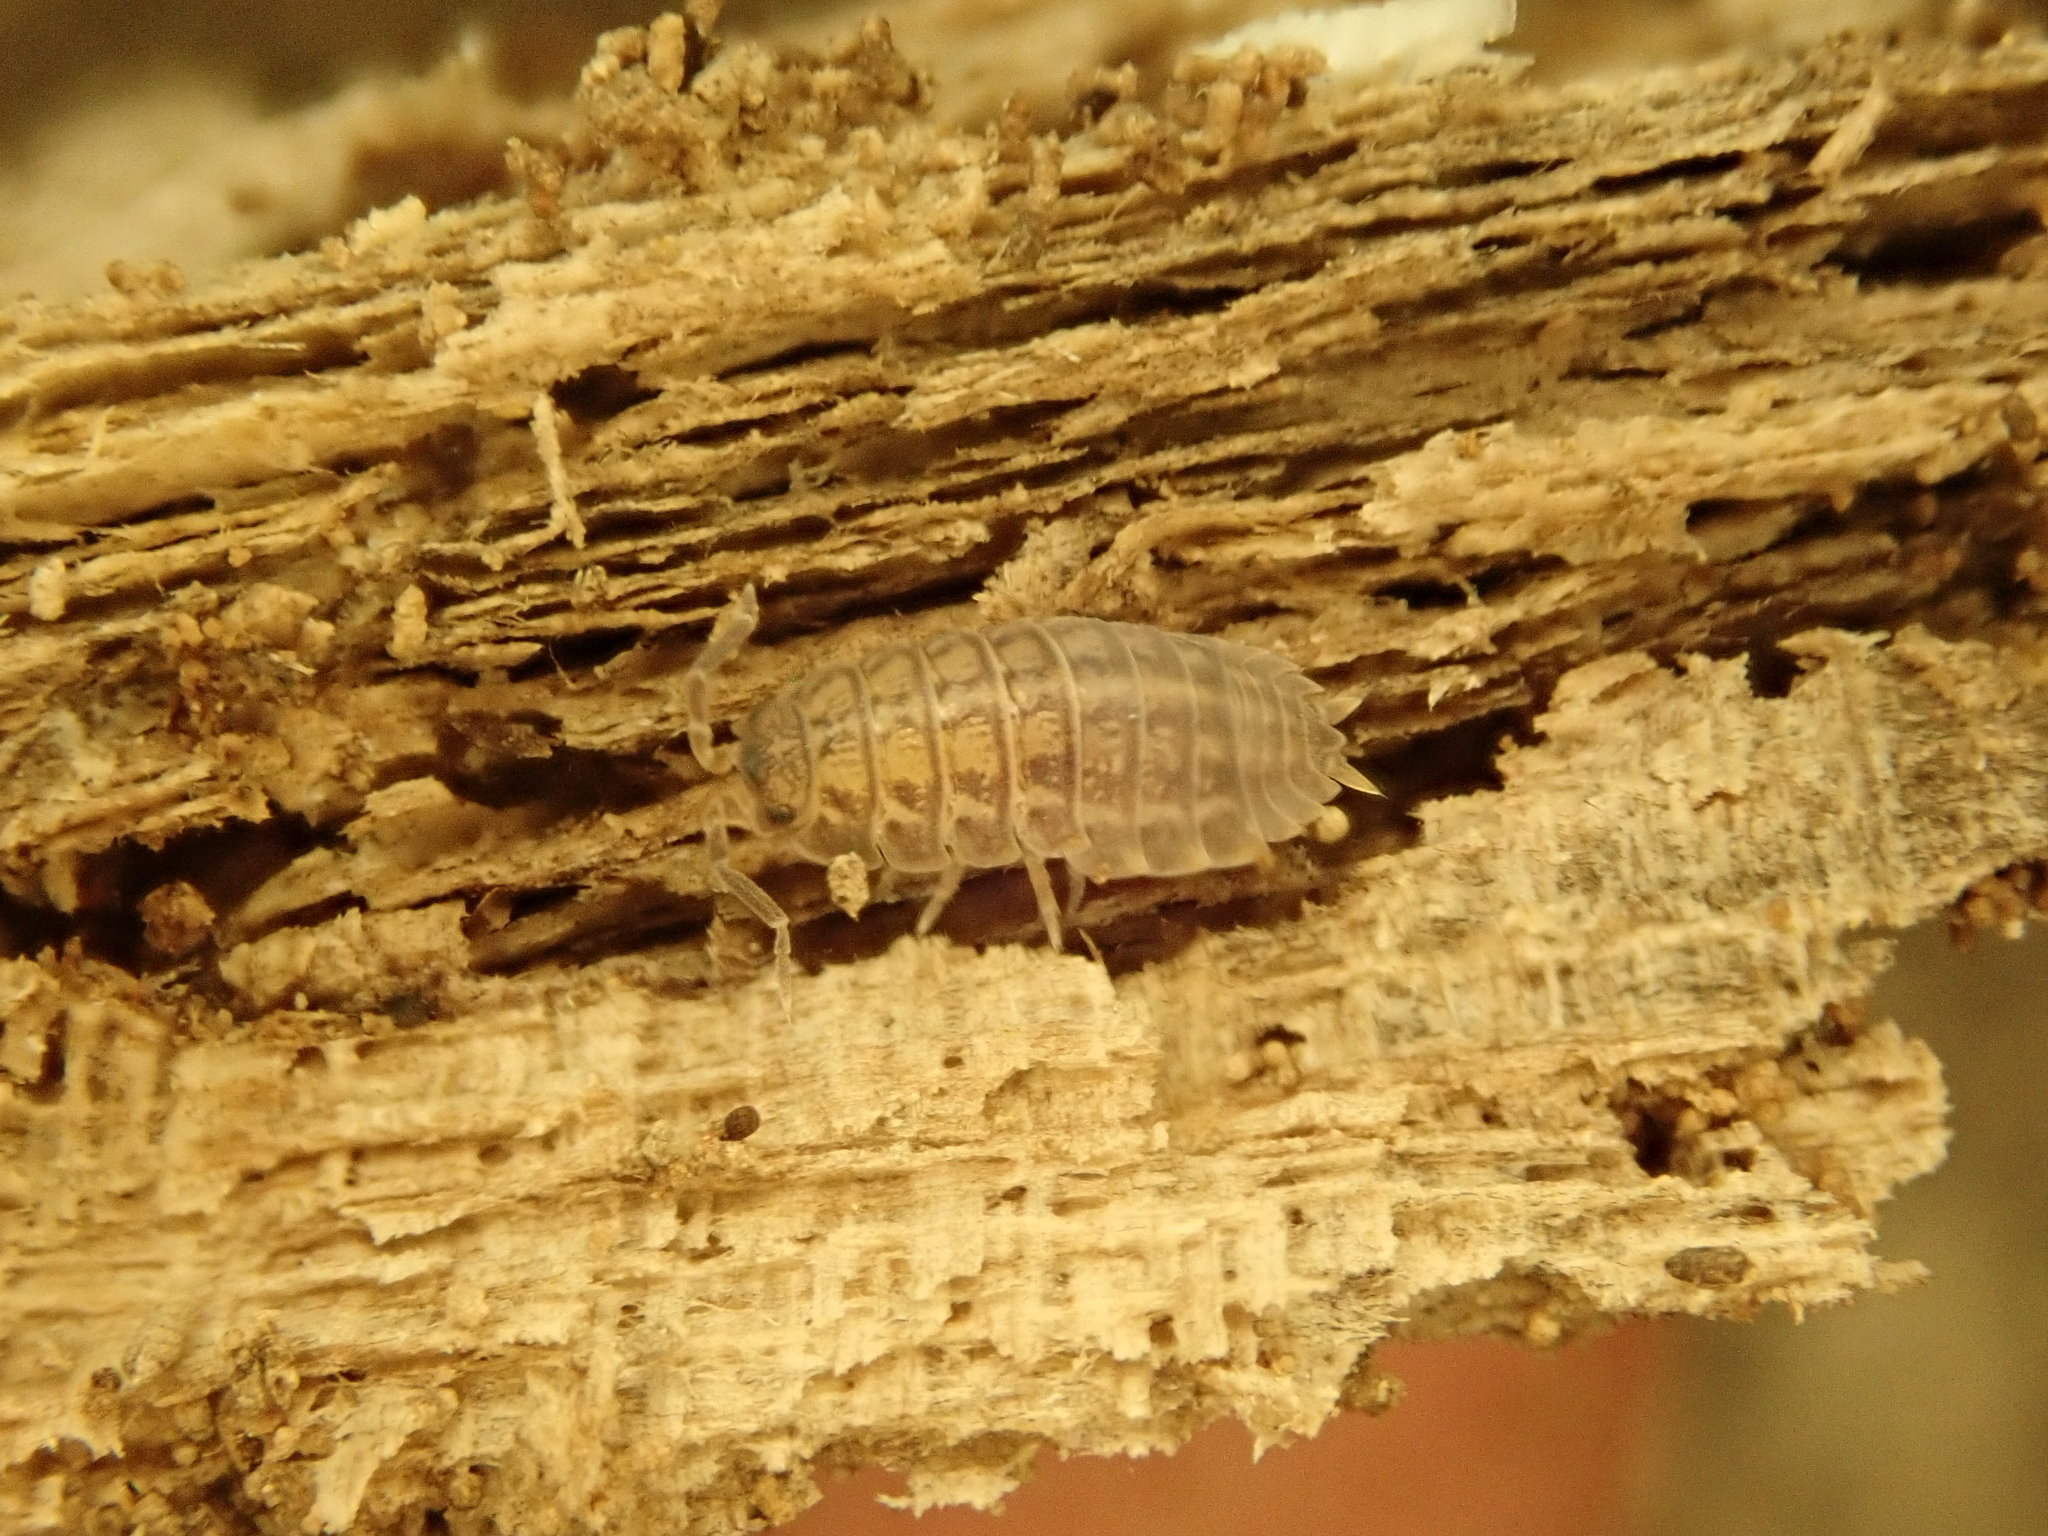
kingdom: Animalia
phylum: Arthropoda
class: Malacostraca
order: Isopoda
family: Trachelipodidae
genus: Trachelipus
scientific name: Trachelipus rathkii
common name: Isopod
